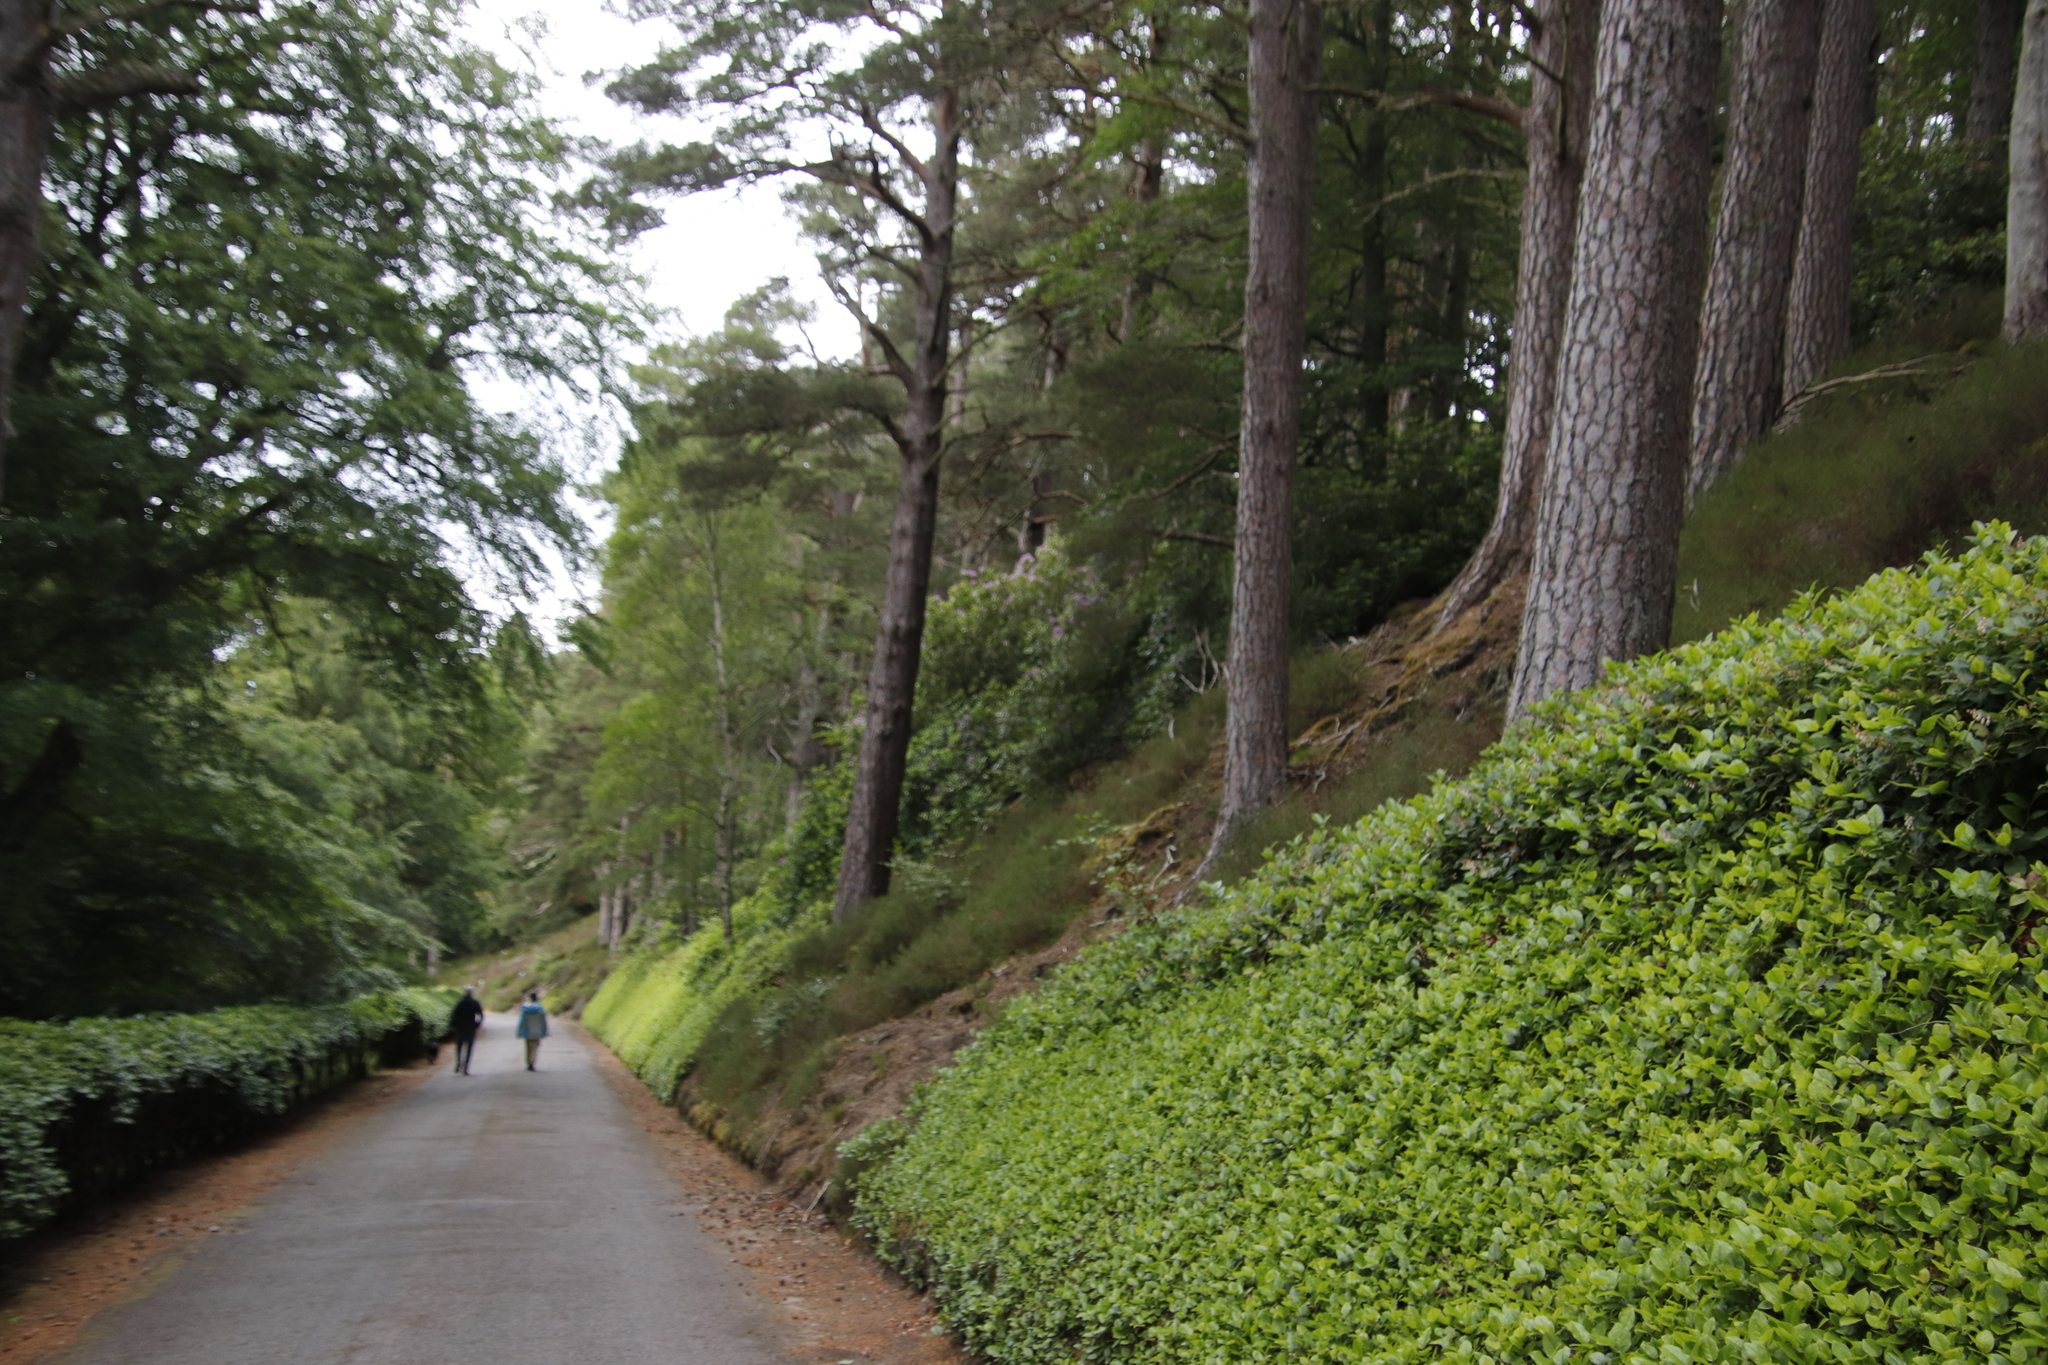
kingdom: Plantae
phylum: Tracheophyta
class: Magnoliopsida
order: Ericales
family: Ericaceae
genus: Gaultheria
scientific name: Gaultheria shallon
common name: Shallon
